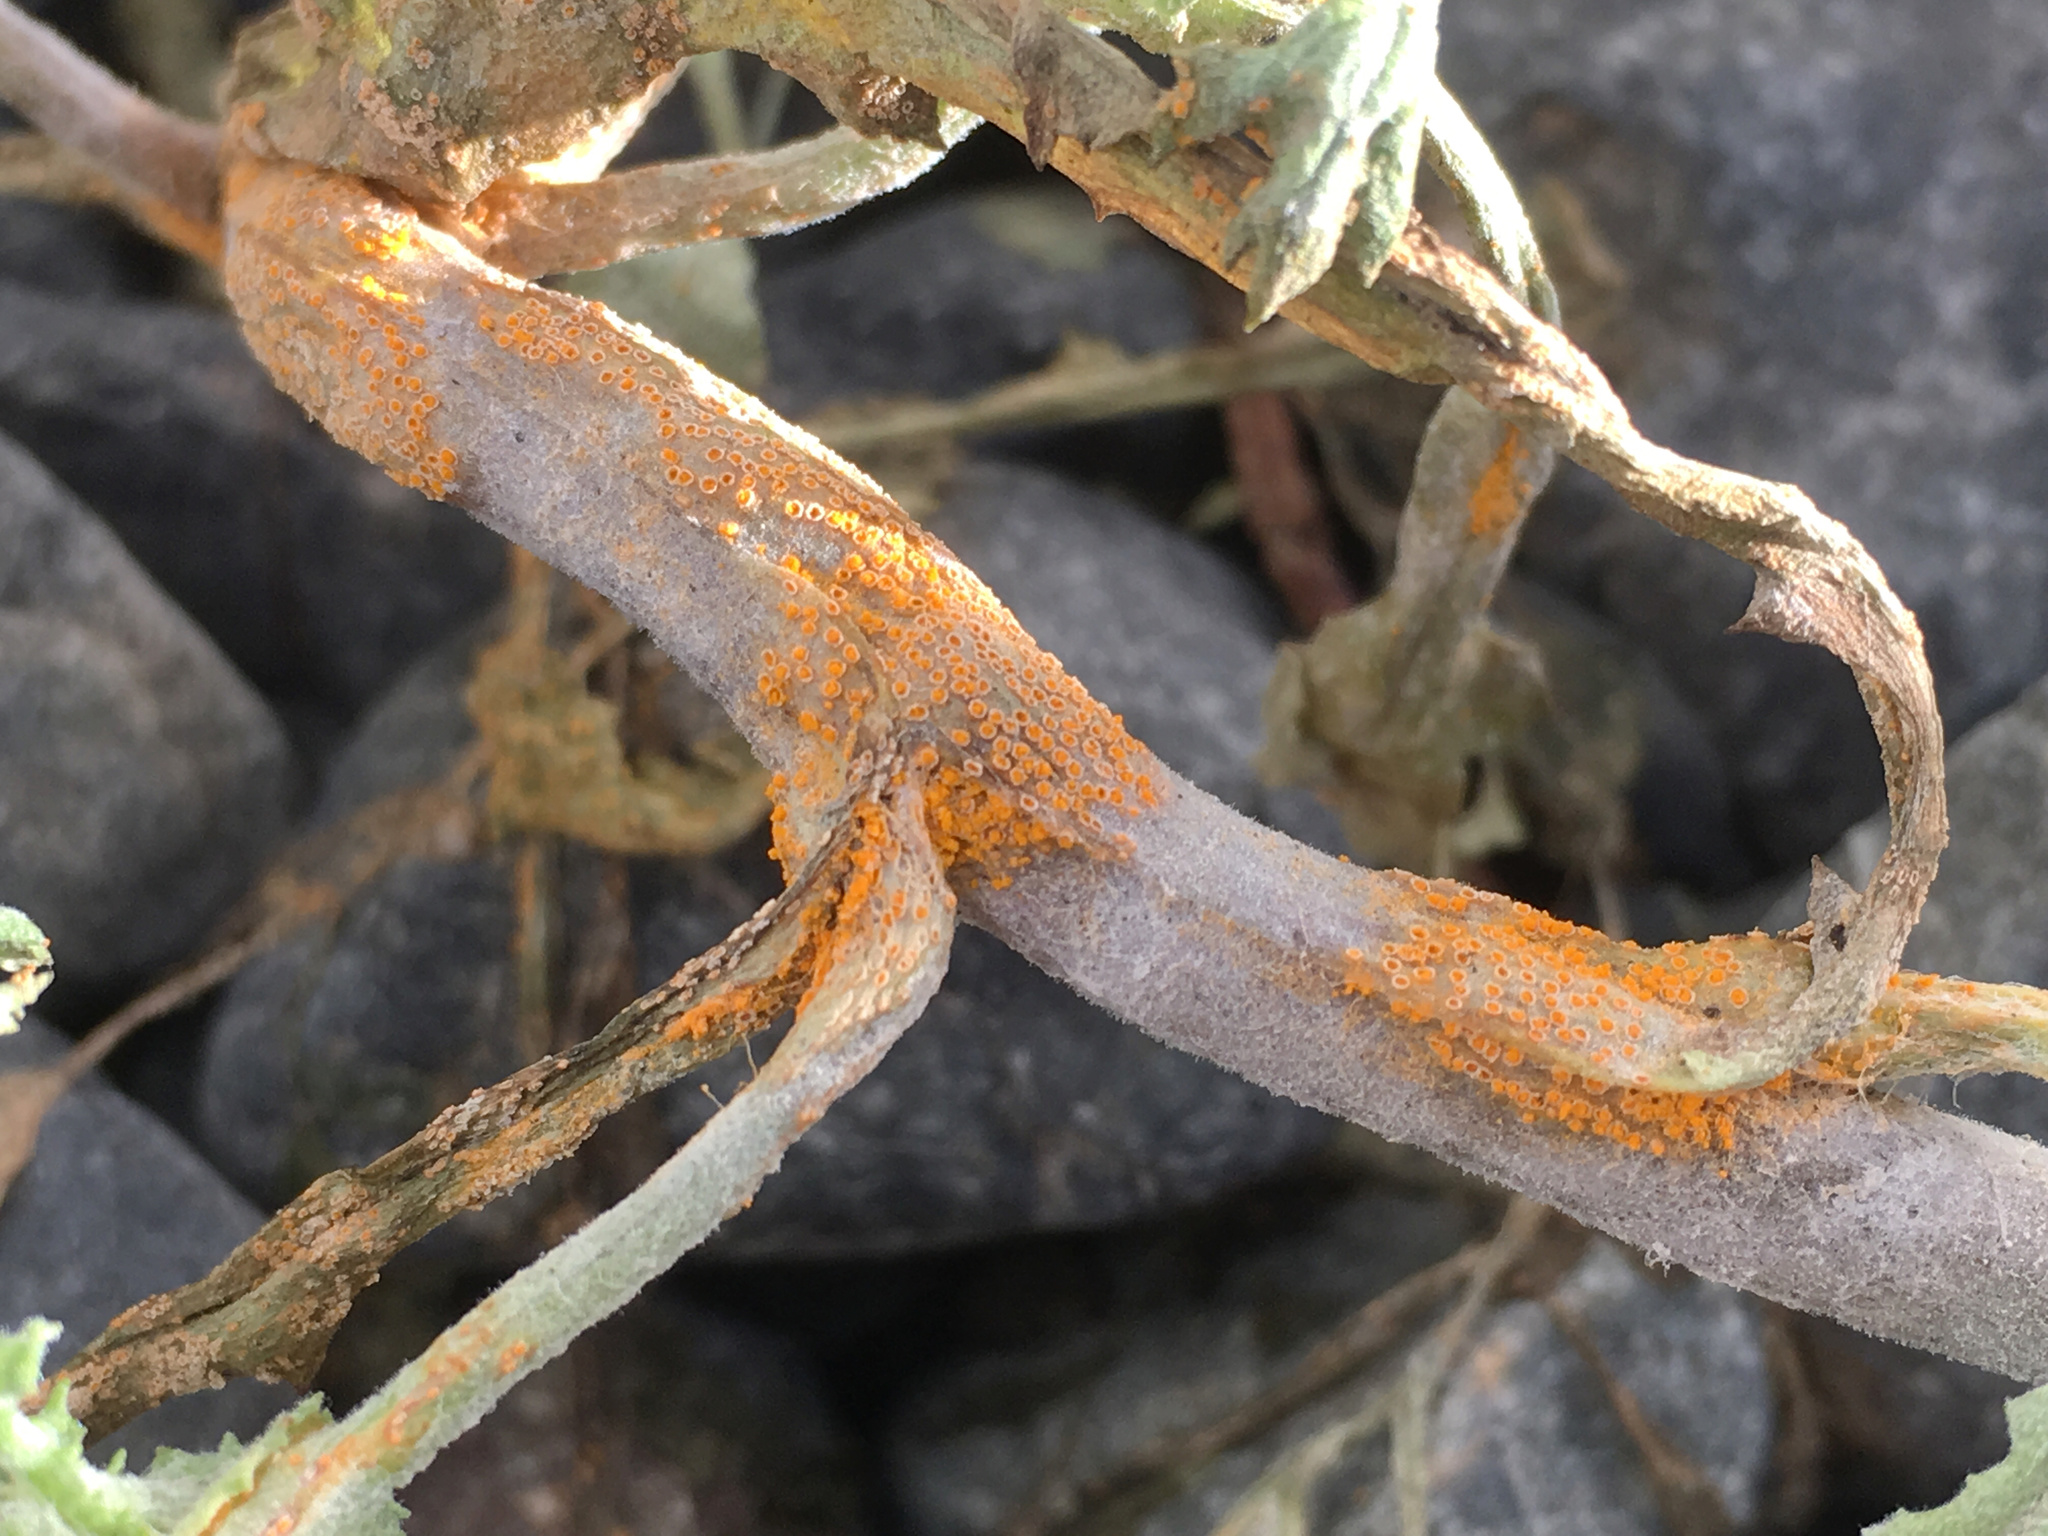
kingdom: Fungi
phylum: Basidiomycota
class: Pucciniomycetes
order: Pucciniales
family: Pucciniaceae
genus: Puccinia
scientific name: Puccinia lagenophorae
